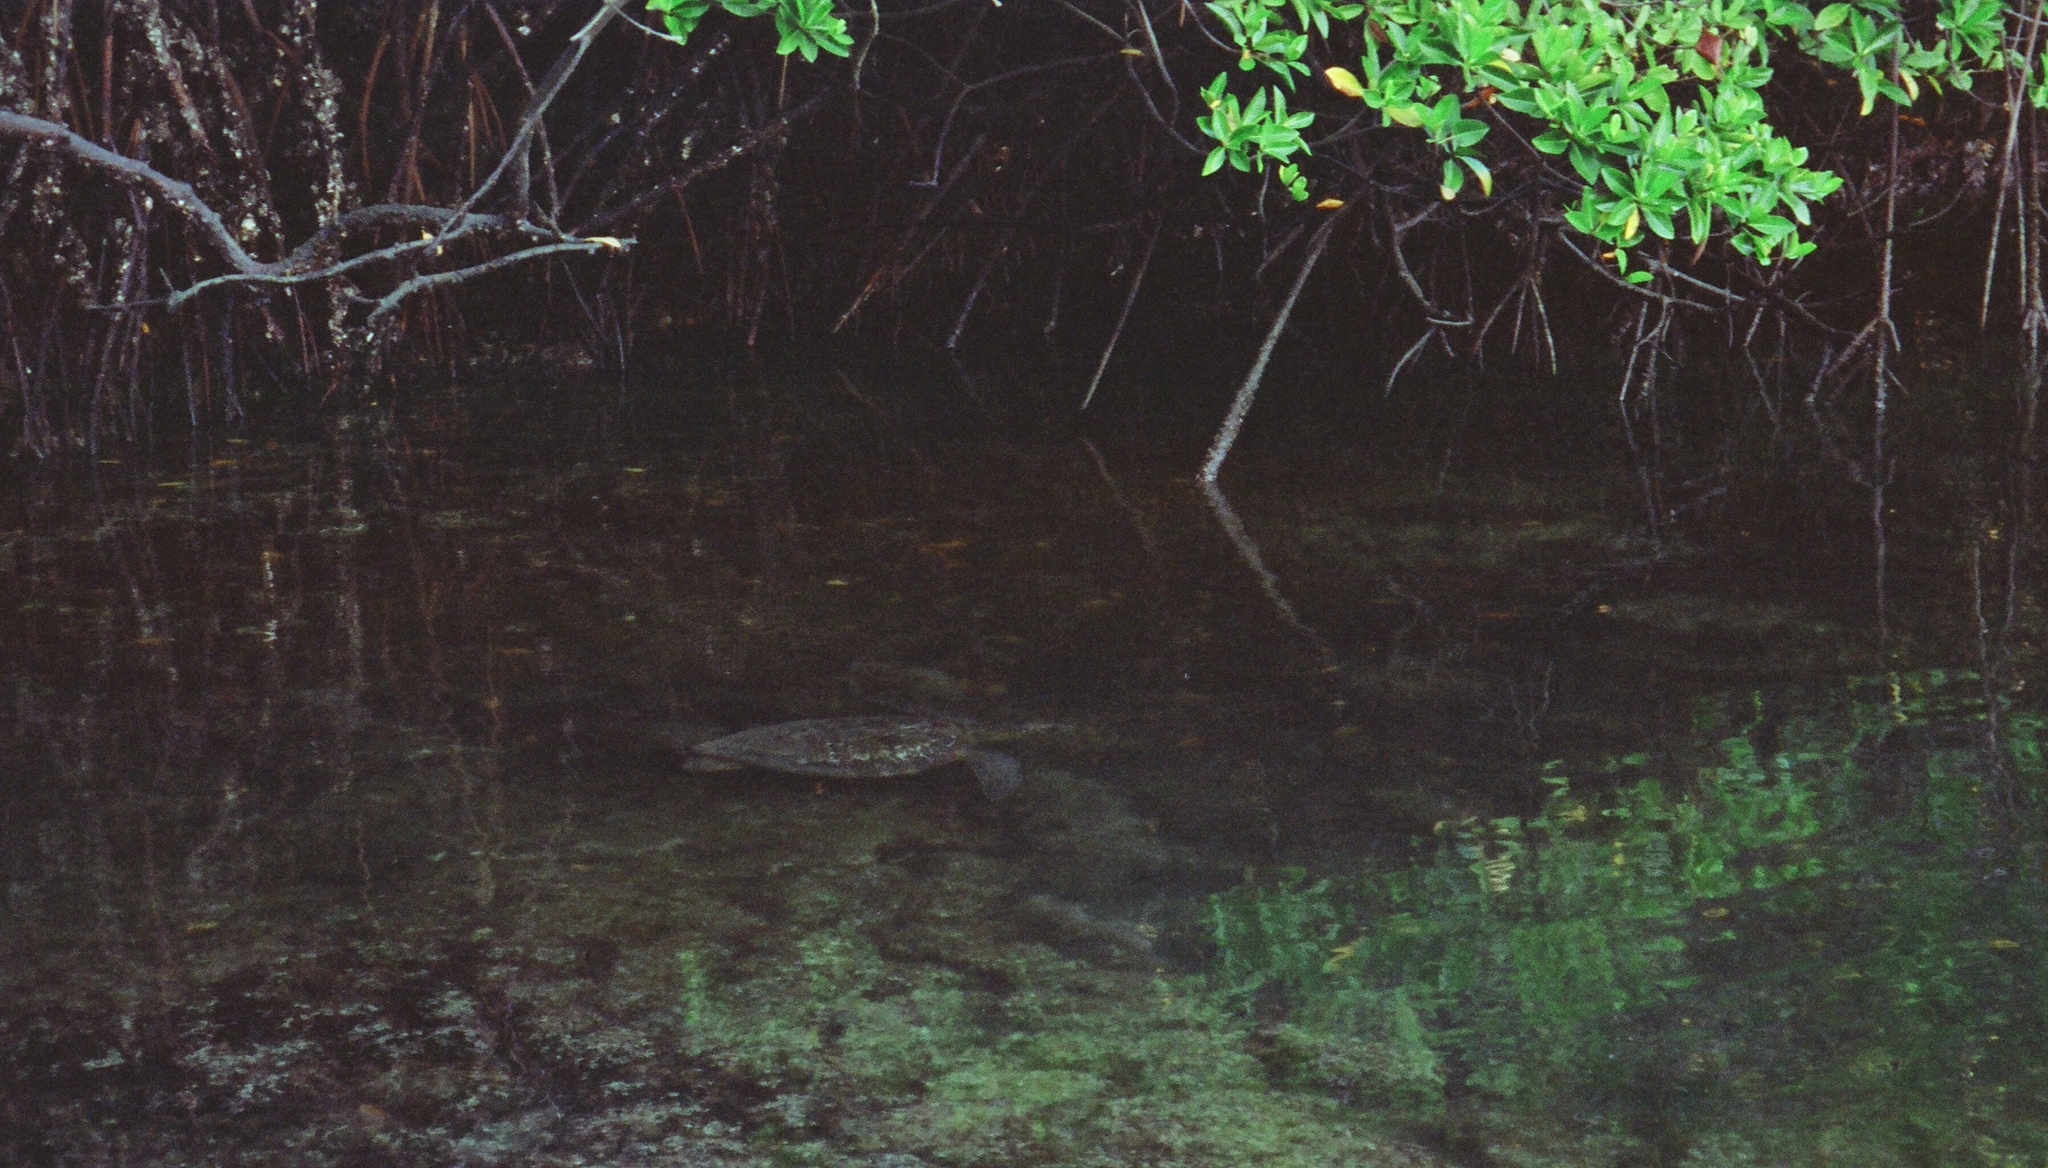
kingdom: Animalia
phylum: Chordata
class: Testudines
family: Cheloniidae
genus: Chelonia
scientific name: Chelonia mydas
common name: Green turtle
